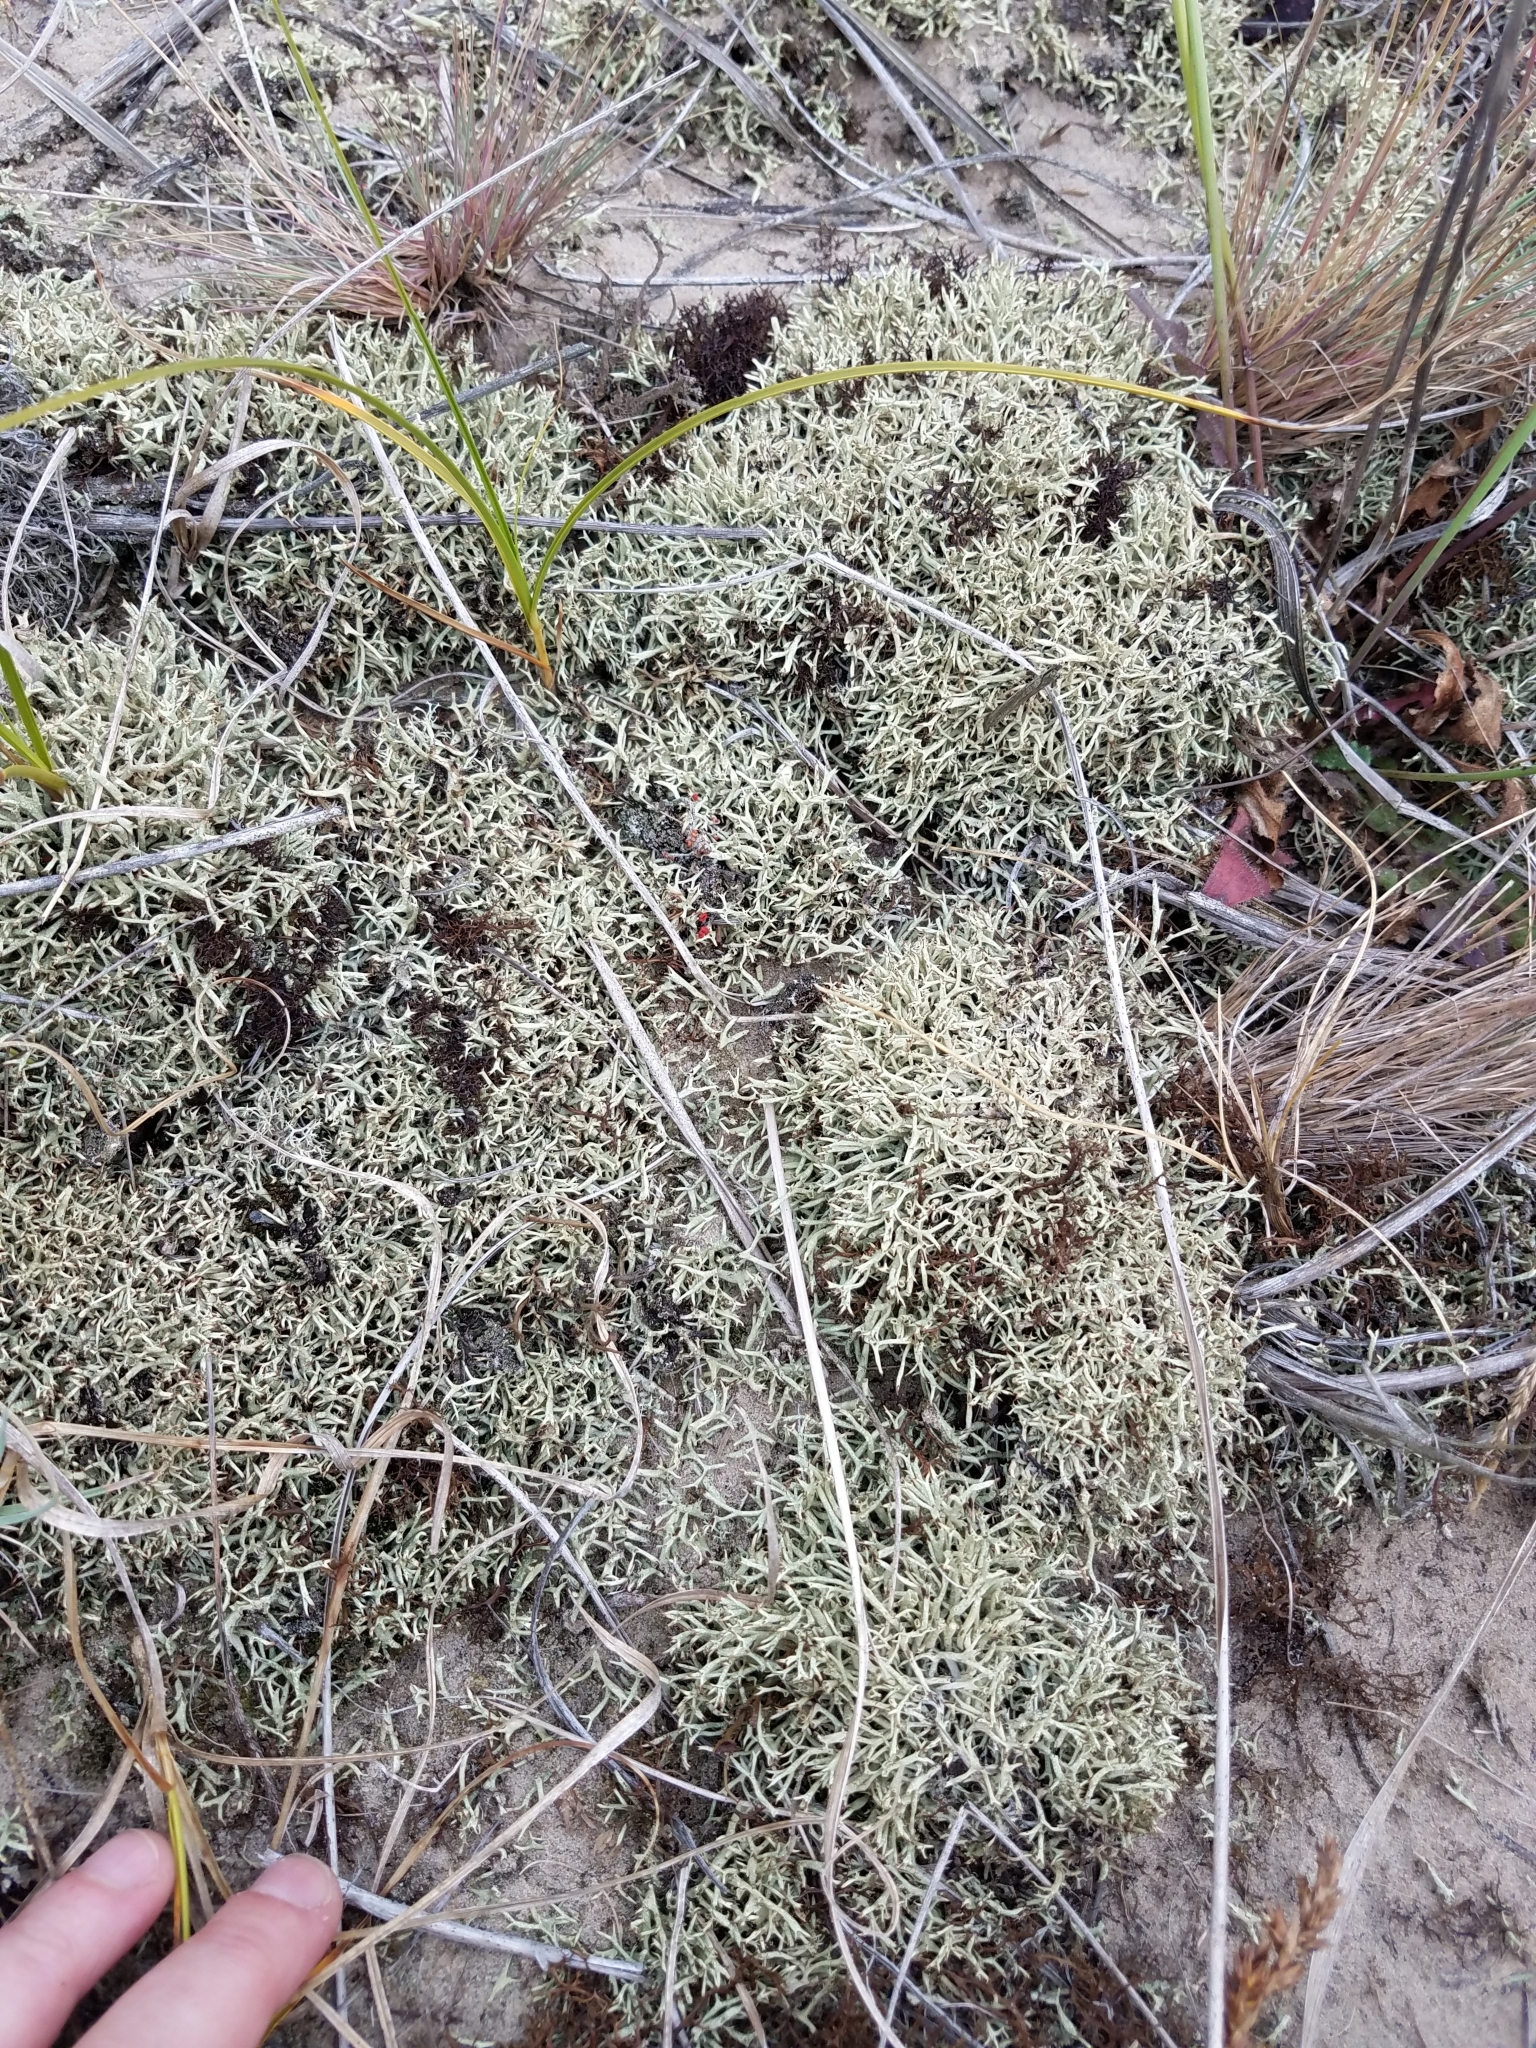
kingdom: Fungi
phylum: Ascomycota
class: Lecanoromycetes
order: Lecanorales
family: Cladoniaceae
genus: Cladonia
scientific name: Cladonia uncialis
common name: Thorn lichen
